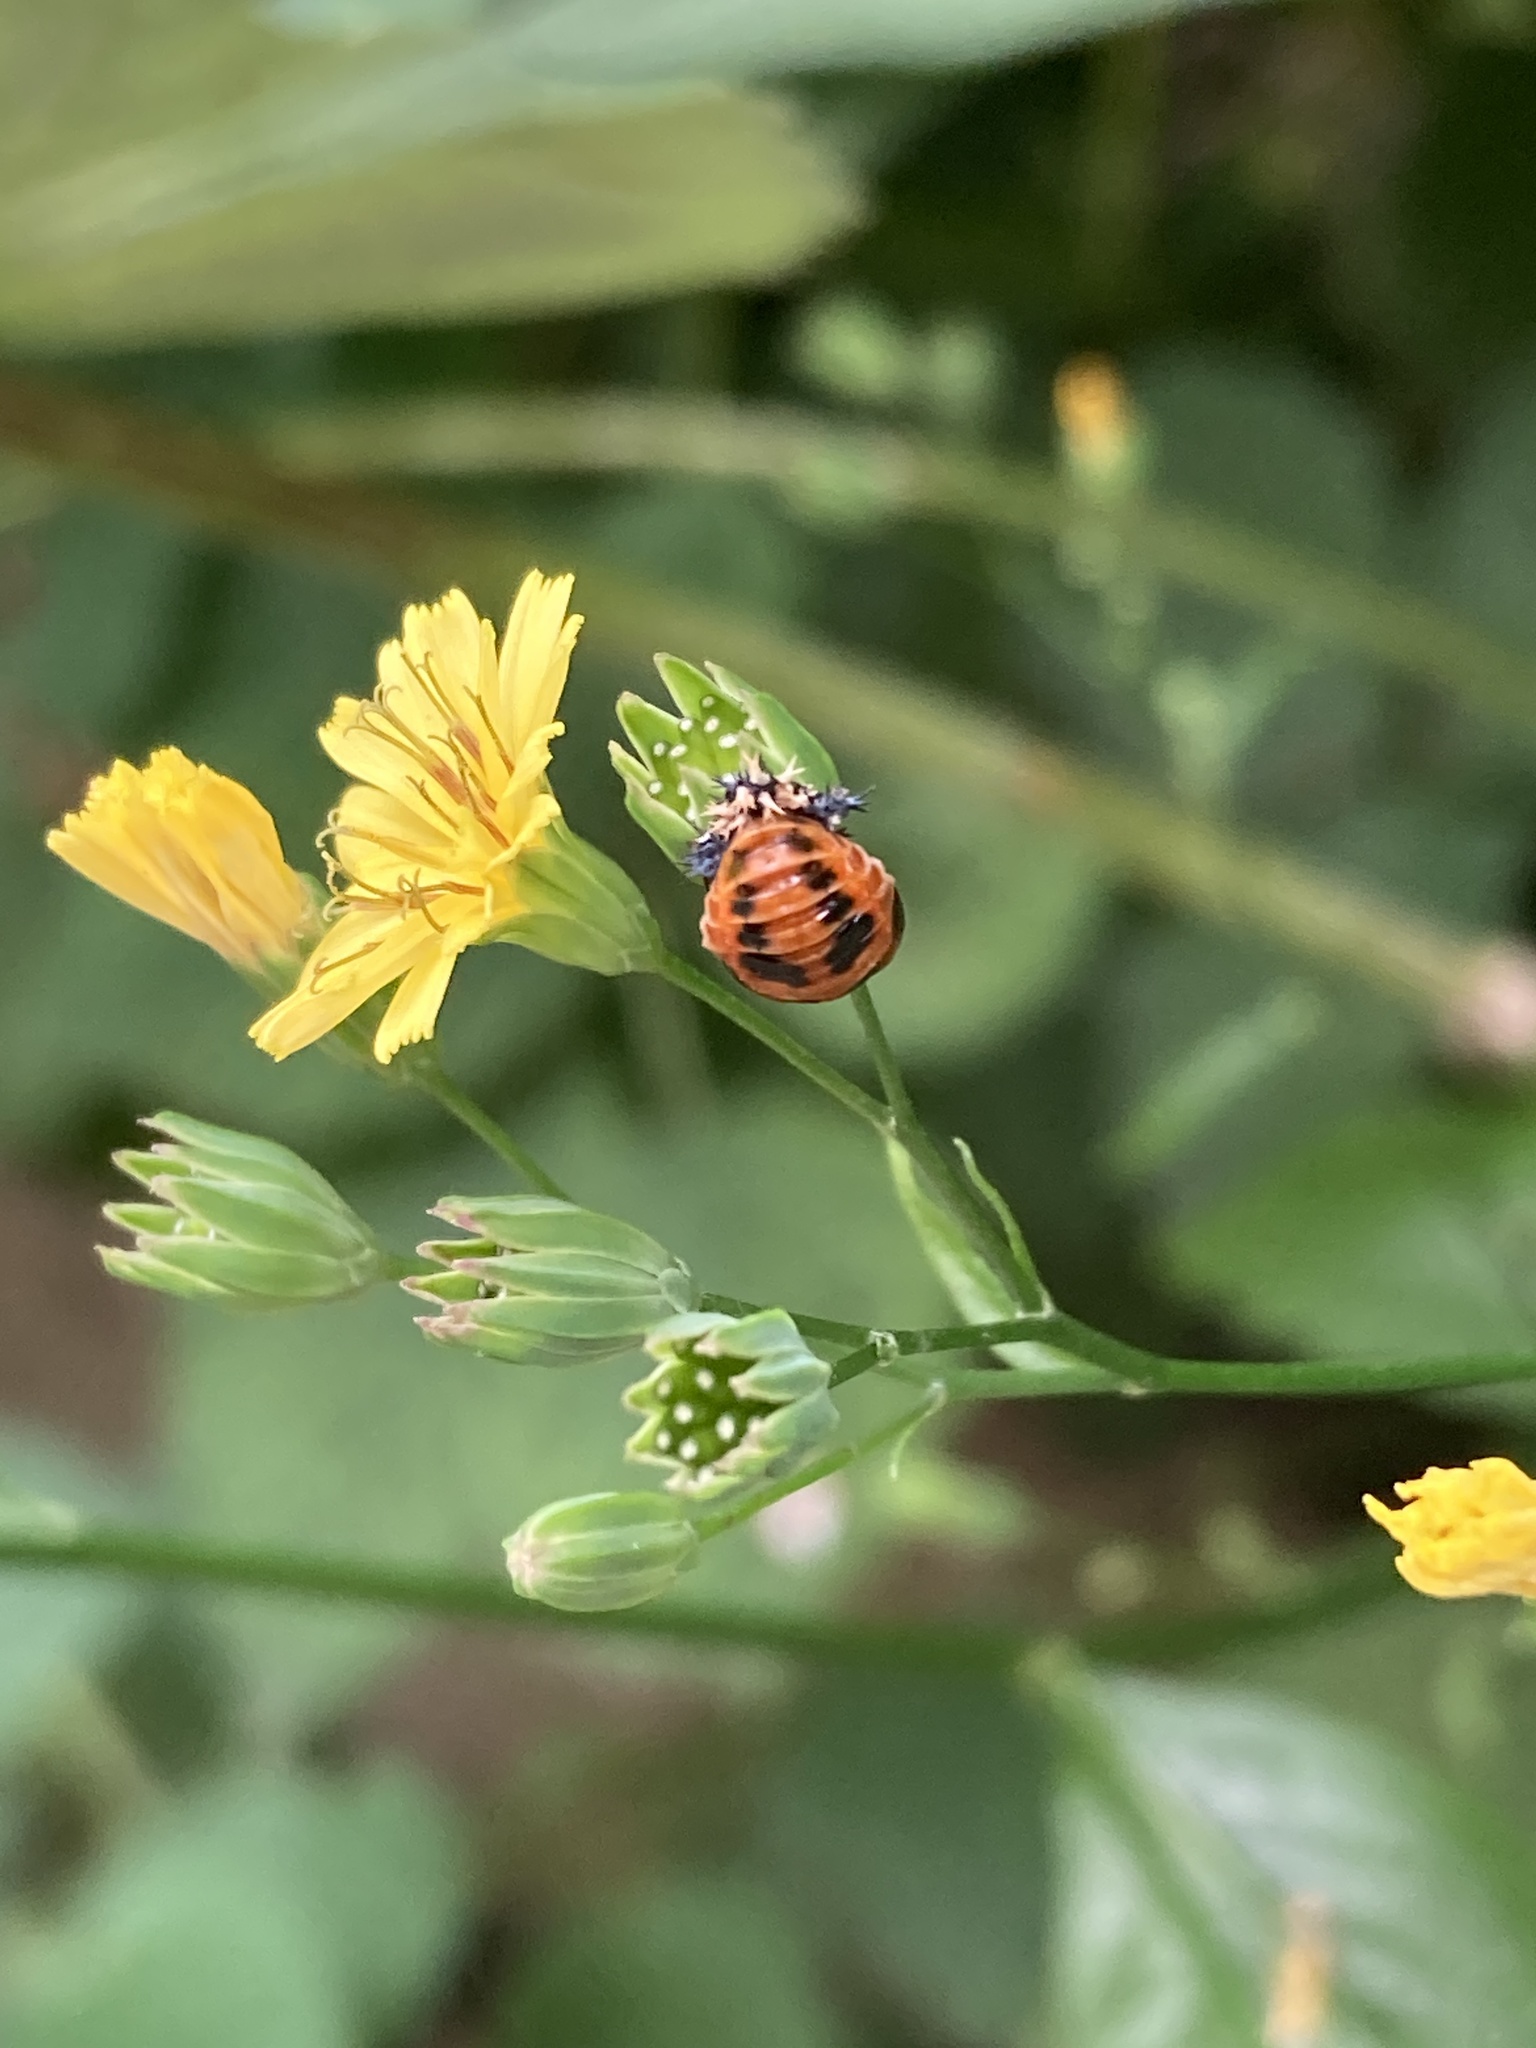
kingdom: Animalia
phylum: Arthropoda
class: Insecta
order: Coleoptera
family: Coccinellidae
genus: Harmonia
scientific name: Harmonia axyridis
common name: Harlequin ladybird
